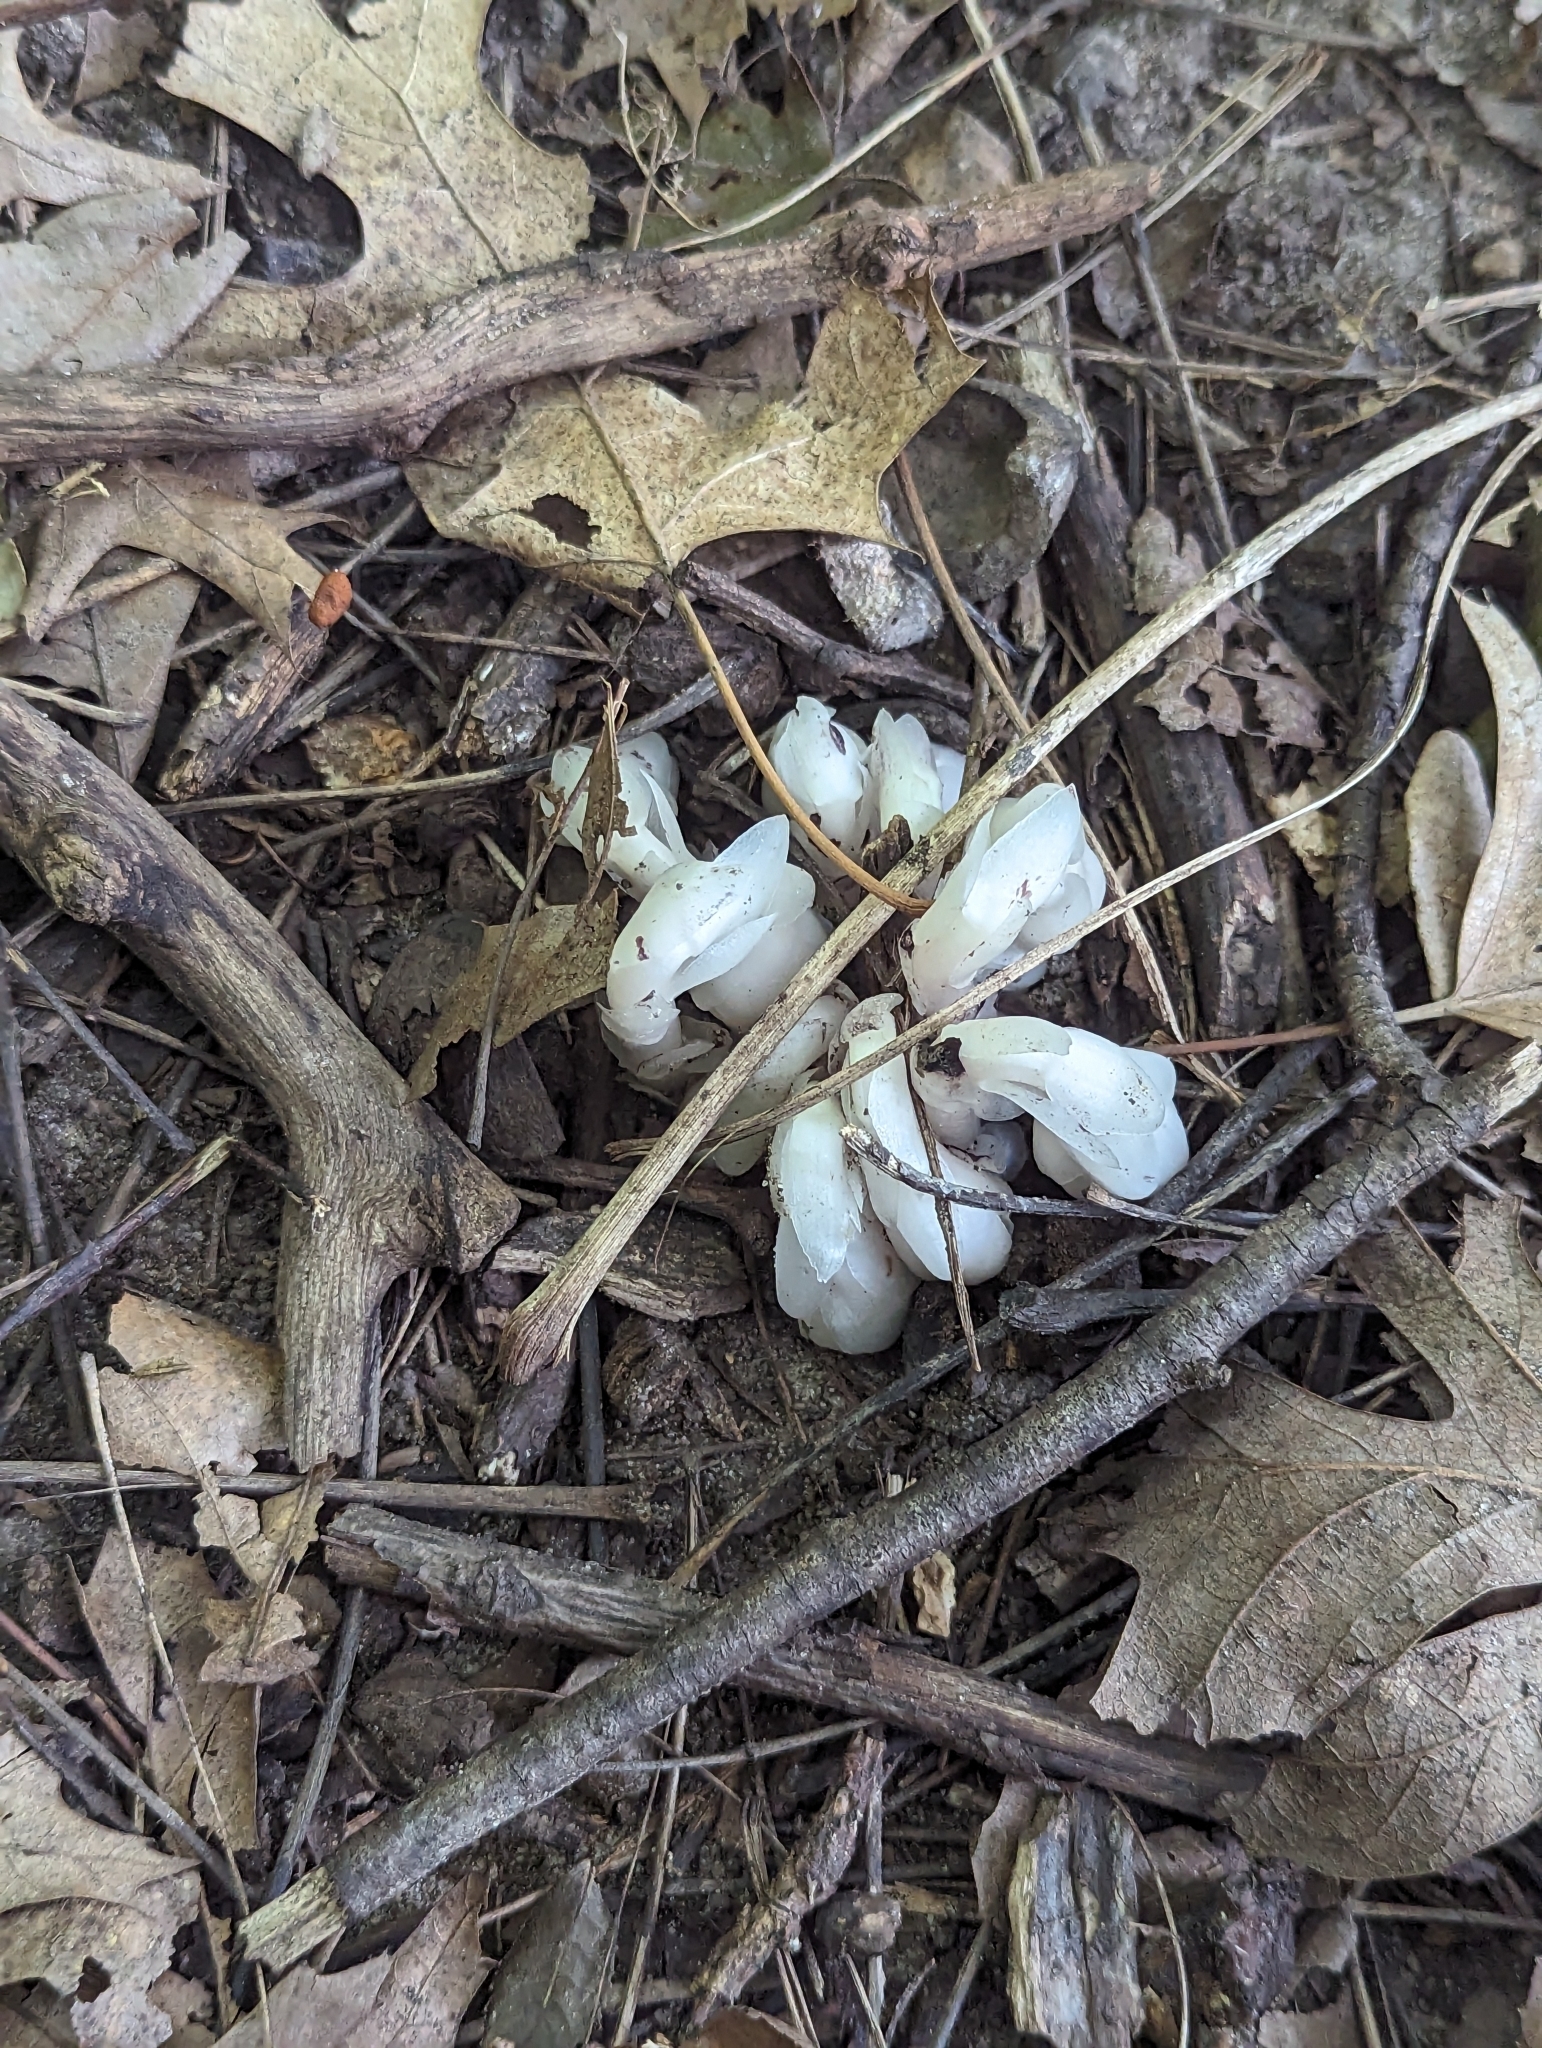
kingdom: Plantae
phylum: Tracheophyta
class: Magnoliopsida
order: Ericales
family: Ericaceae
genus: Monotropa
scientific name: Monotropa uniflora
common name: Convulsion root
